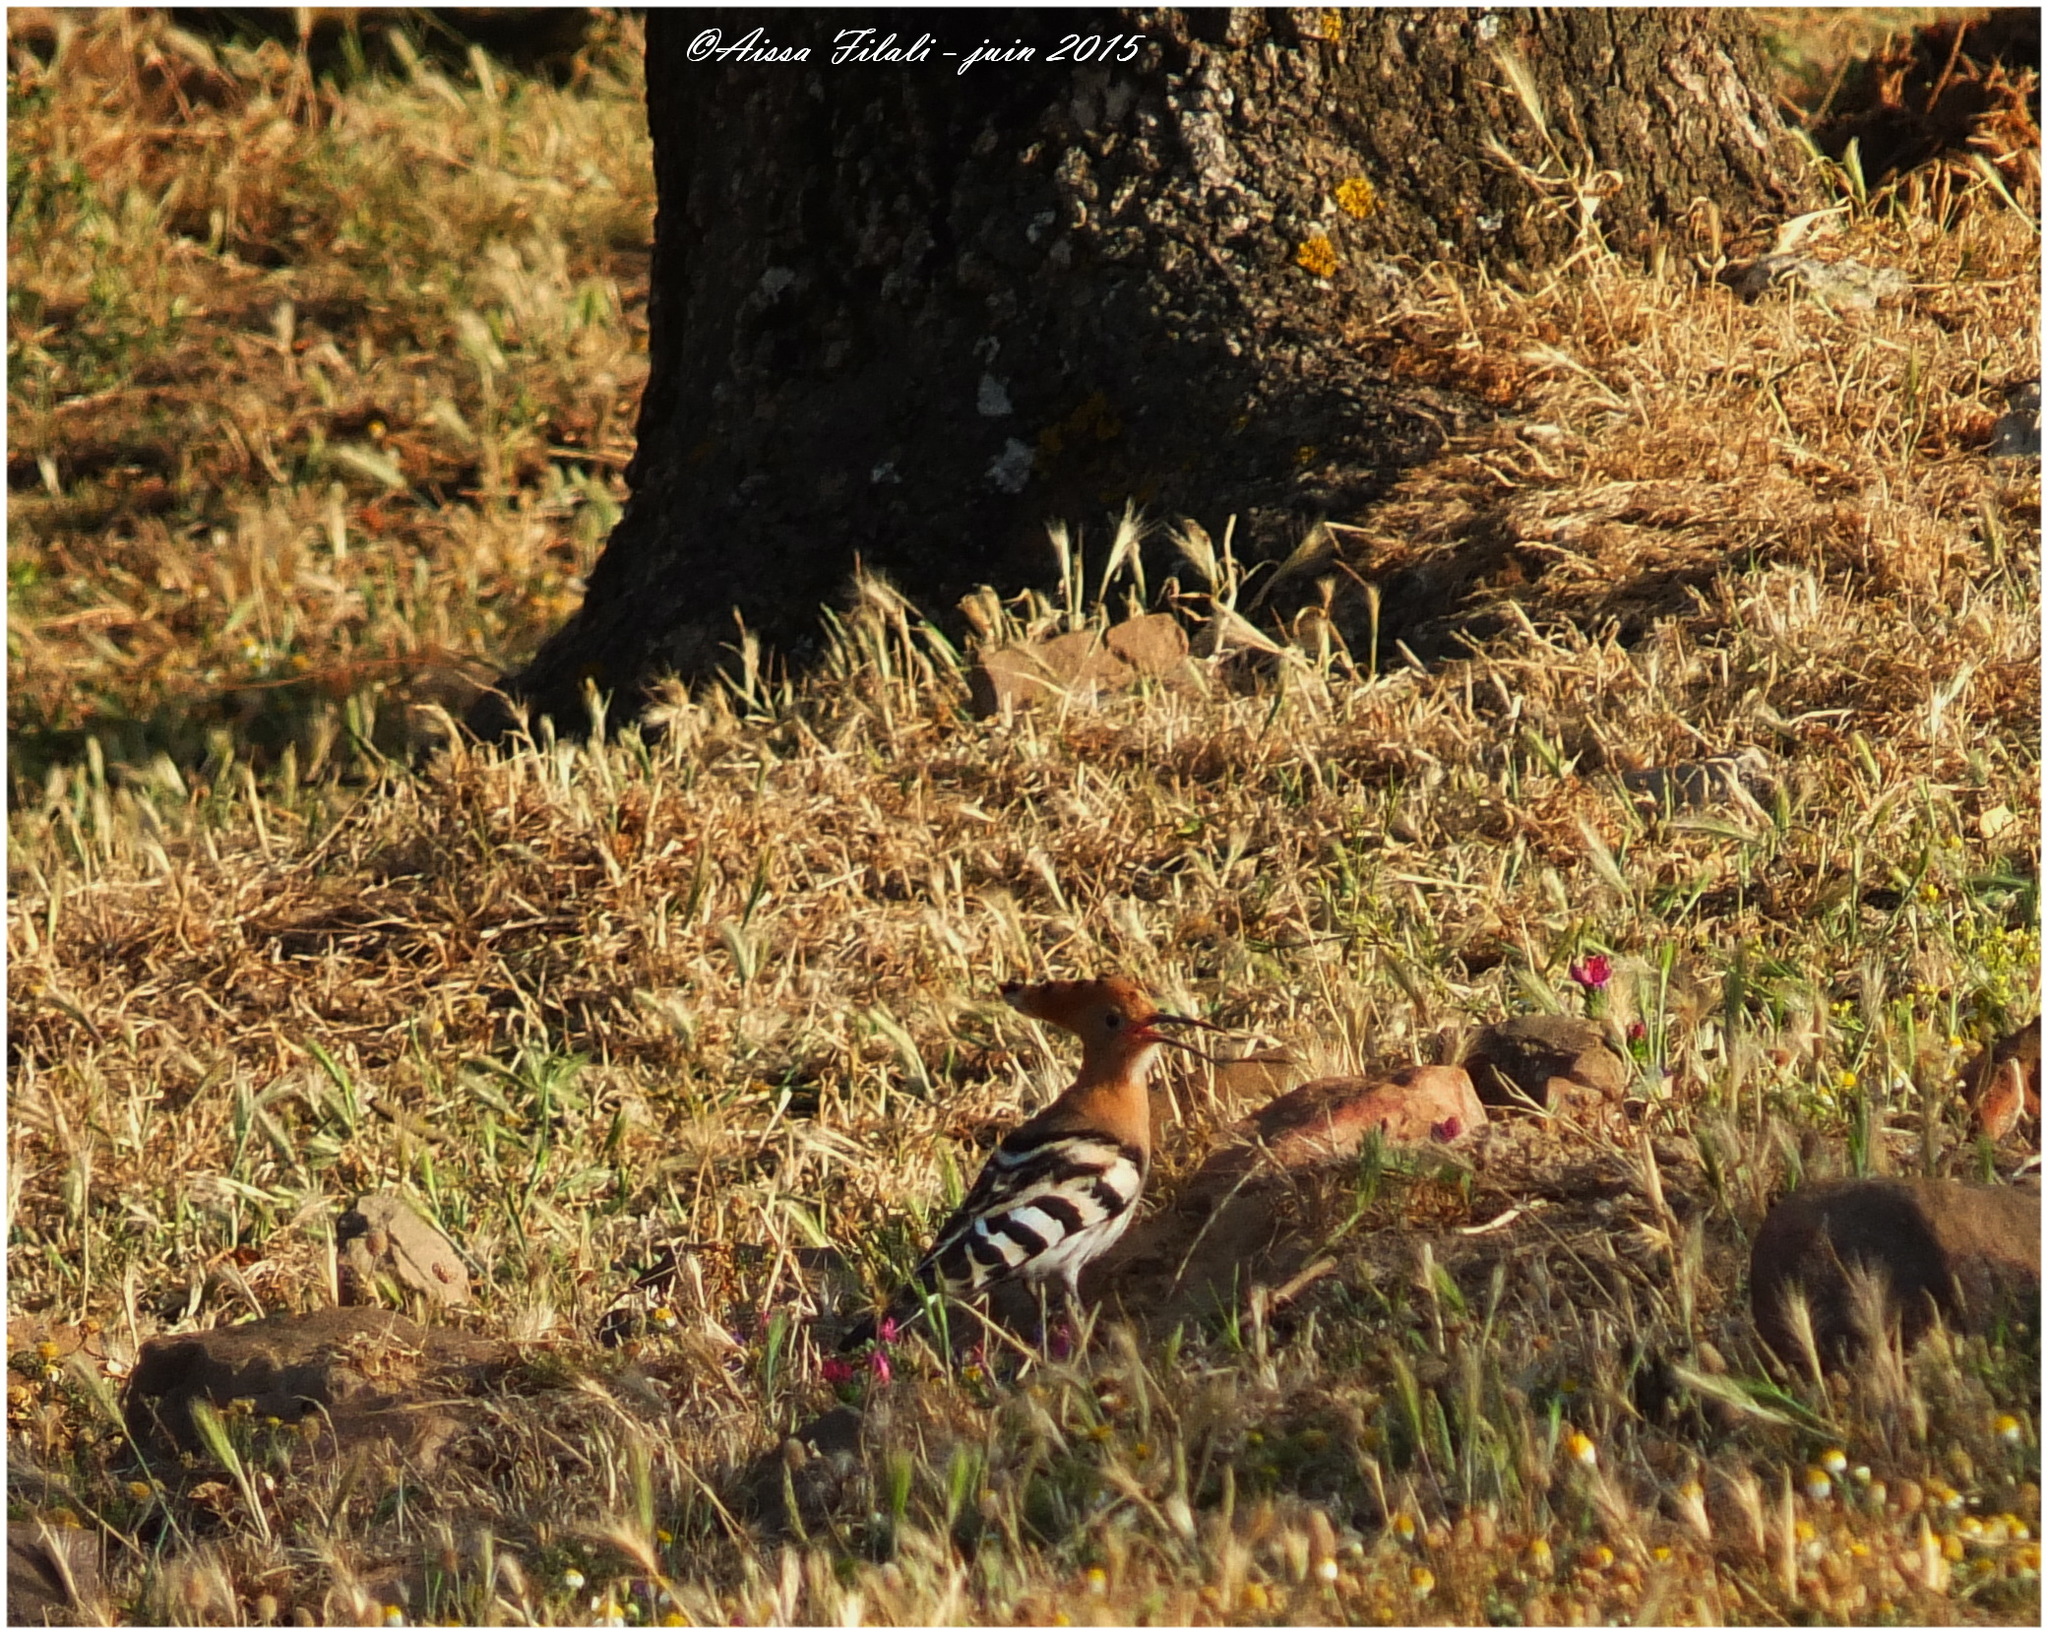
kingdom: Animalia
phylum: Chordata
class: Aves
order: Bucerotiformes
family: Upupidae
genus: Upupa
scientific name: Upupa epops
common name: Eurasian hoopoe
